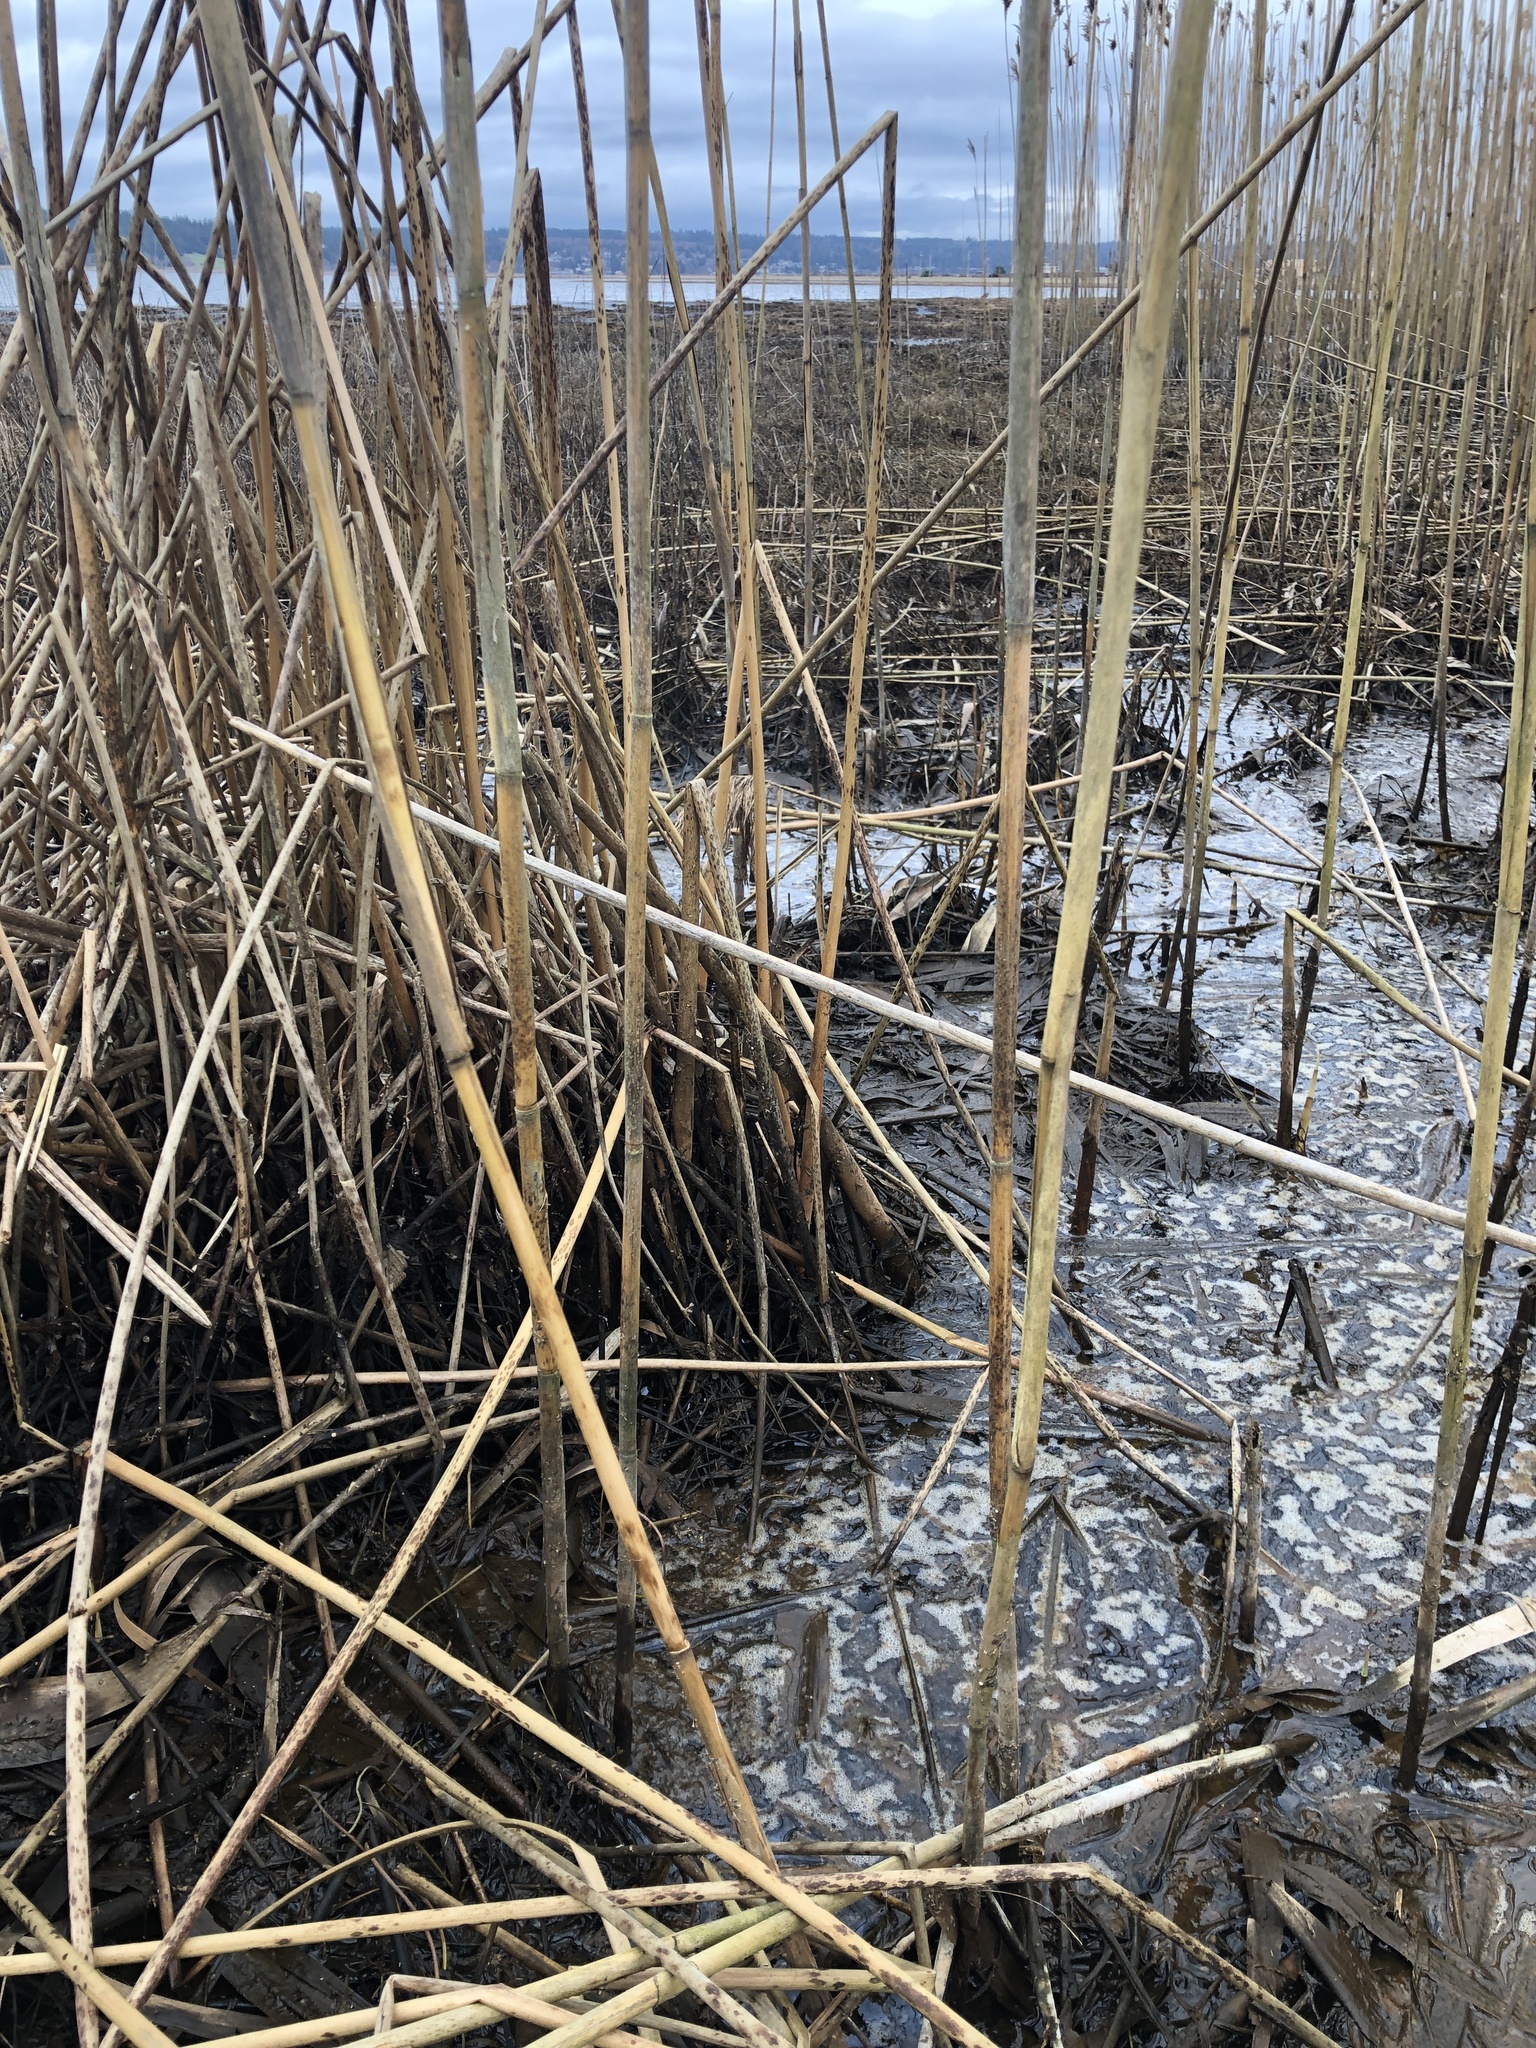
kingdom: Plantae
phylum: Tracheophyta
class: Liliopsida
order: Poales
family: Poaceae
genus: Phragmites
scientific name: Phragmites australis
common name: Common reed
